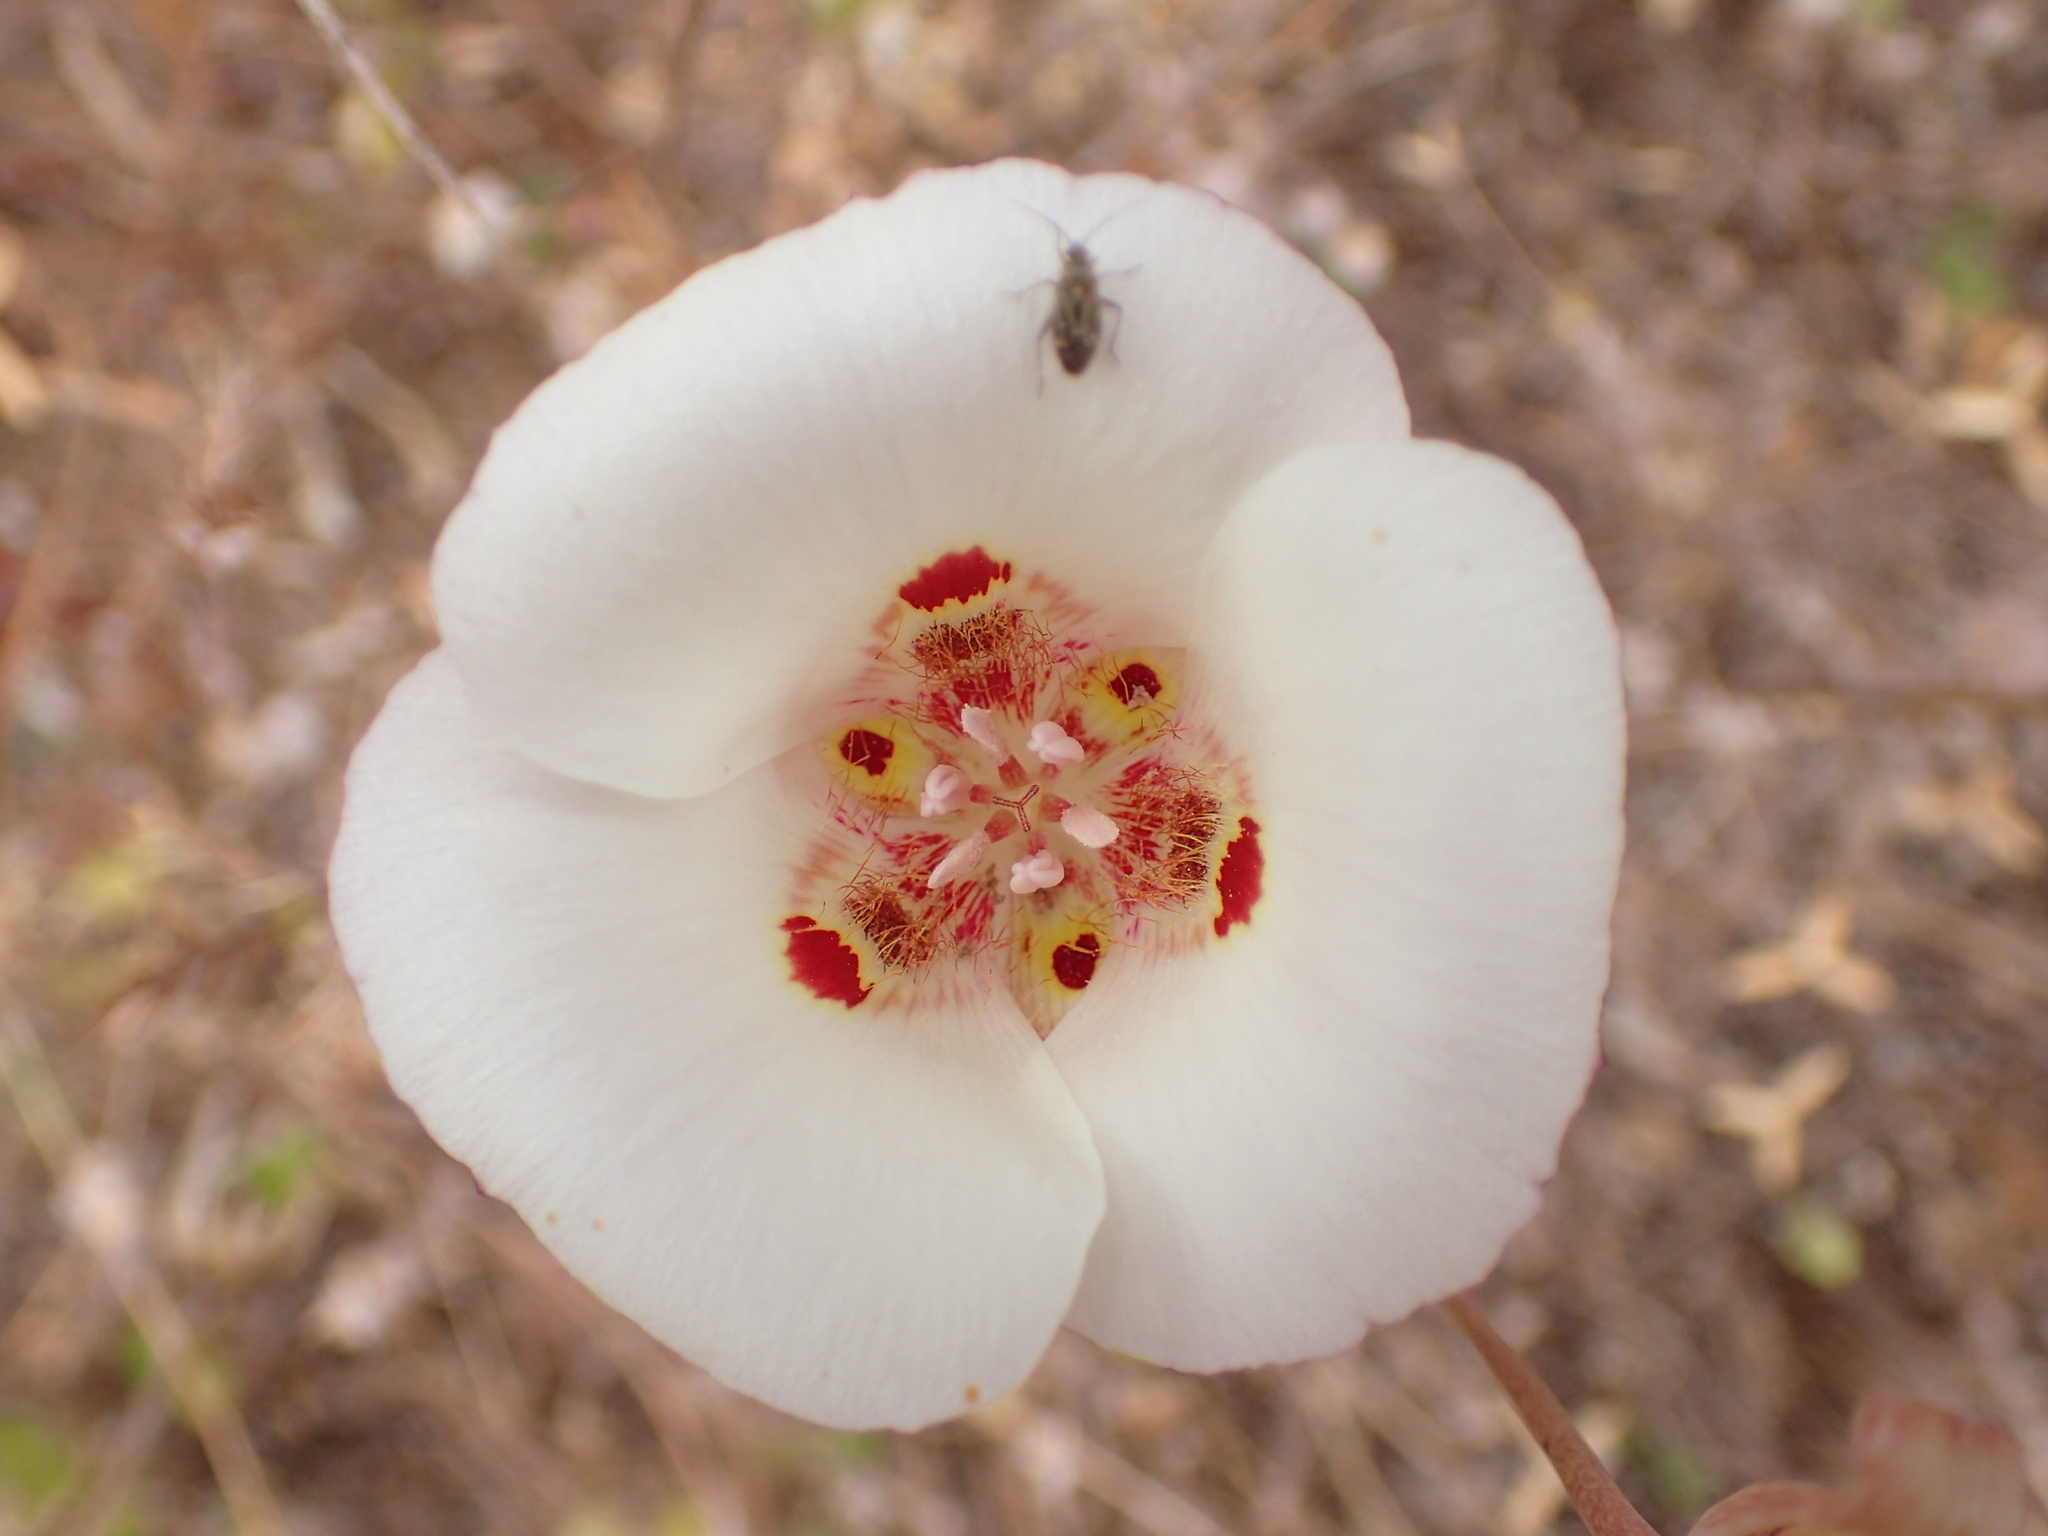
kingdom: Plantae
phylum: Tracheophyta
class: Liliopsida
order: Liliales
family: Liliaceae
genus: Calochortus
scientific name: Calochortus venustus
